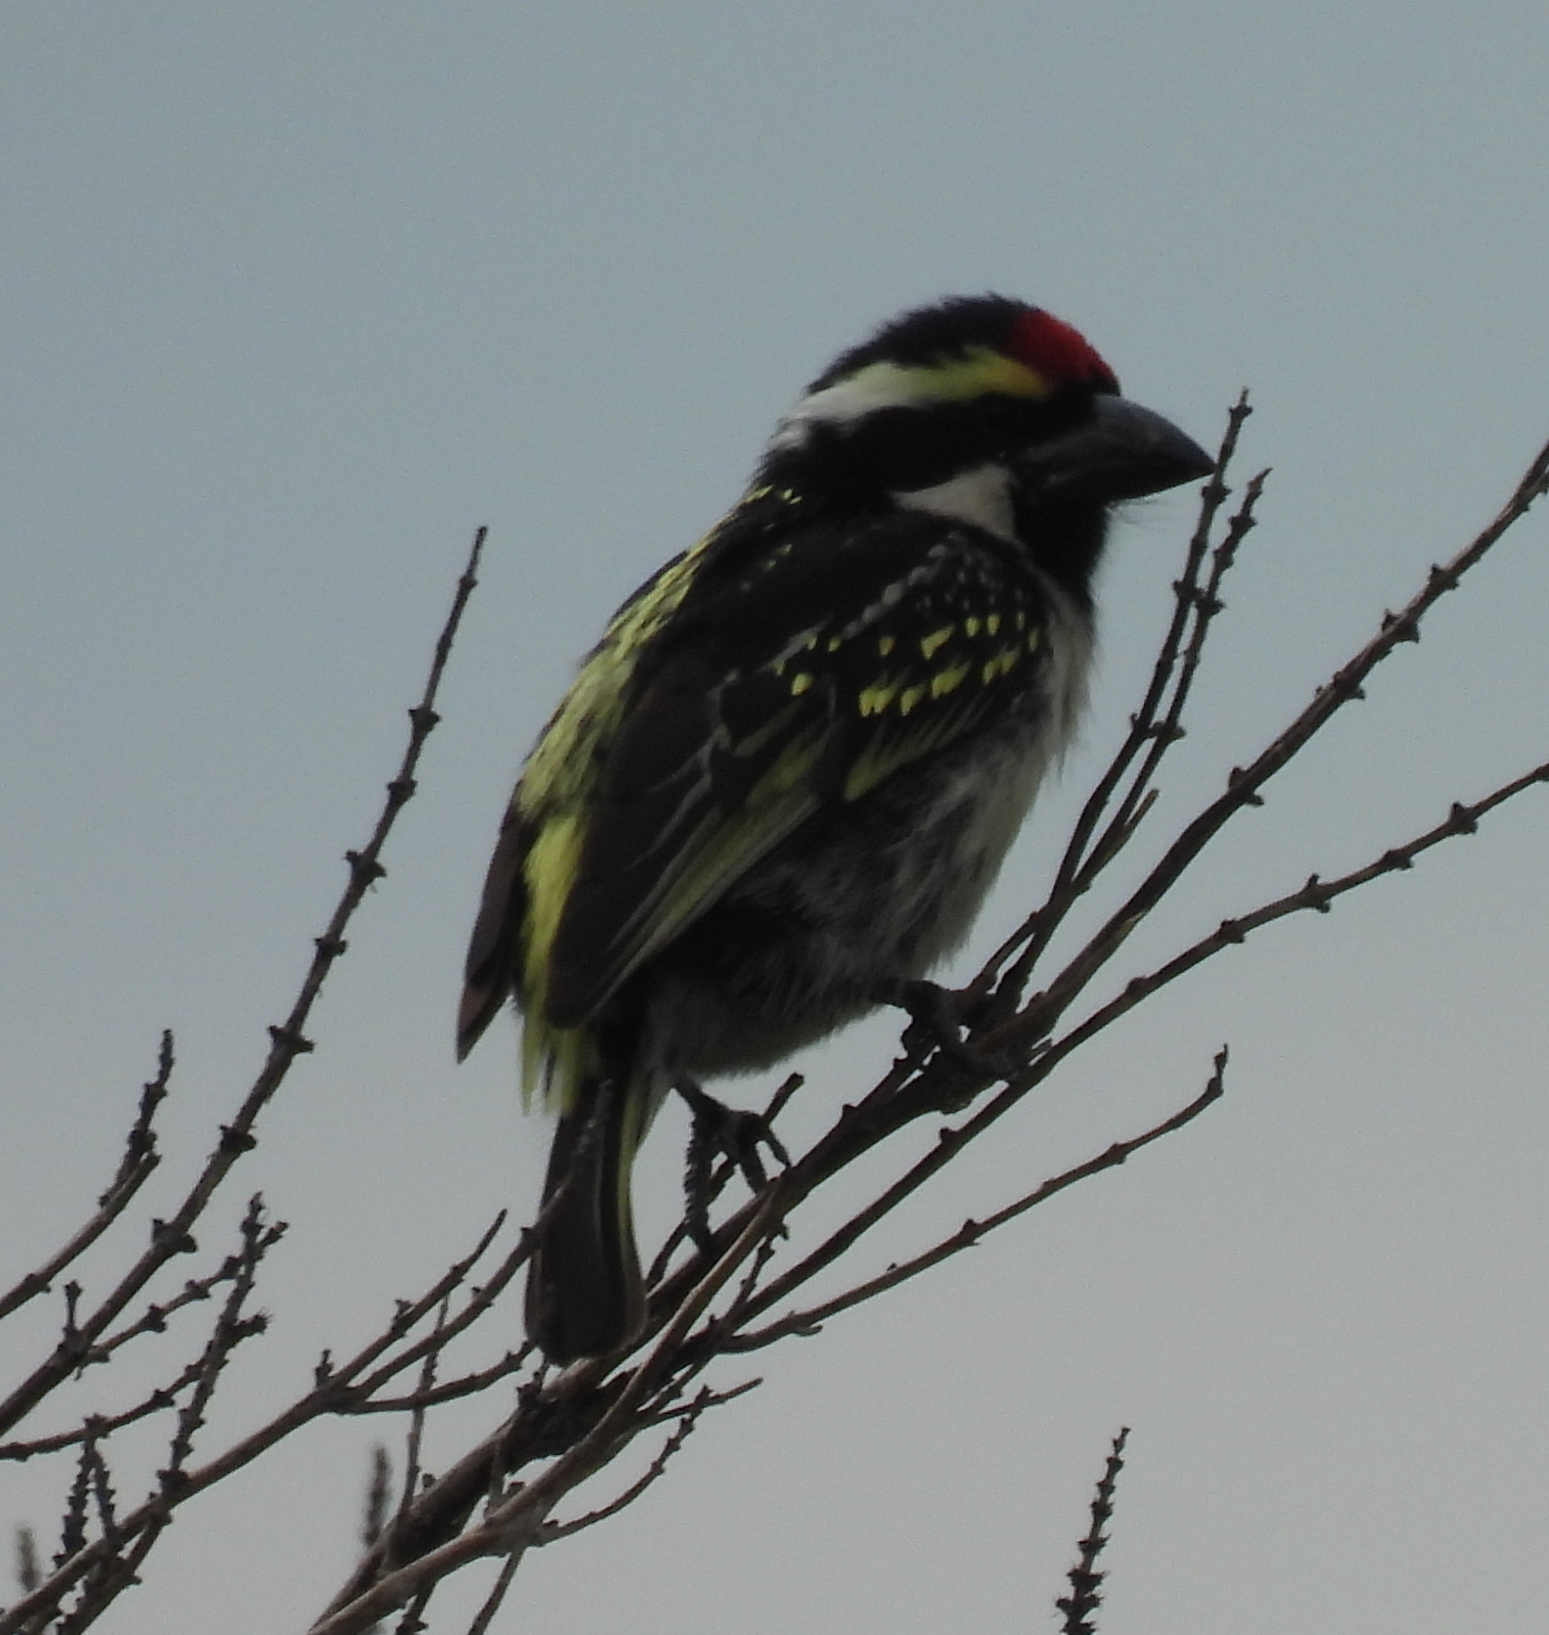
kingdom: Animalia
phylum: Chordata
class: Aves
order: Piciformes
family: Lybiidae
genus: Tricholaema
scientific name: Tricholaema leucomelas
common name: Acacia pied barbet
